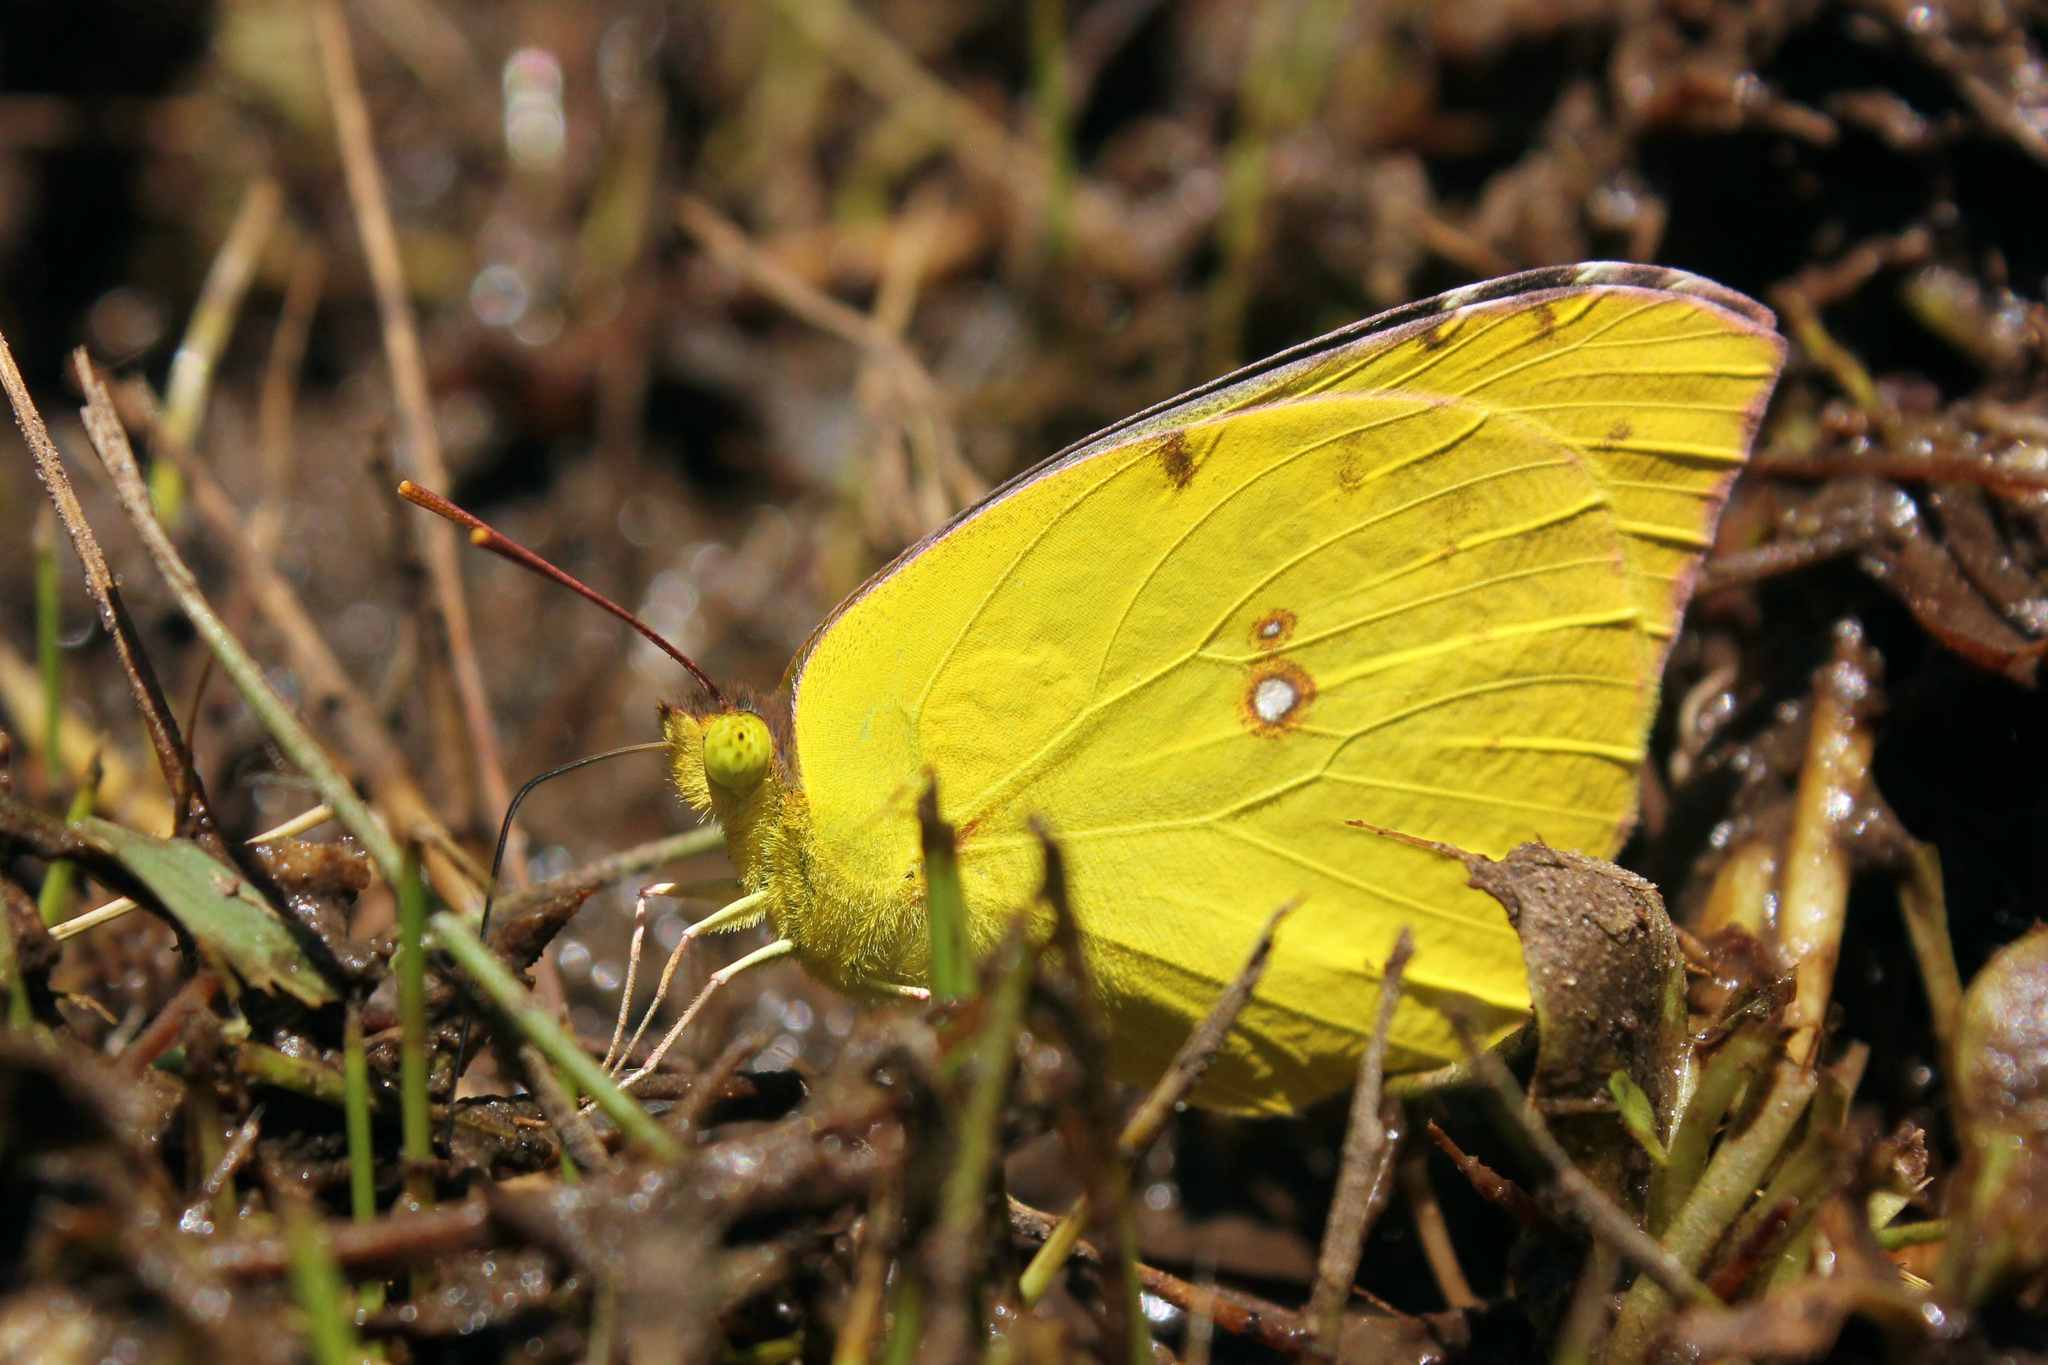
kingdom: Animalia
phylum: Arthropoda
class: Insecta
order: Lepidoptera
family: Pieridae
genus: Zerene
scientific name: Zerene cesonia
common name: Southern dogface
